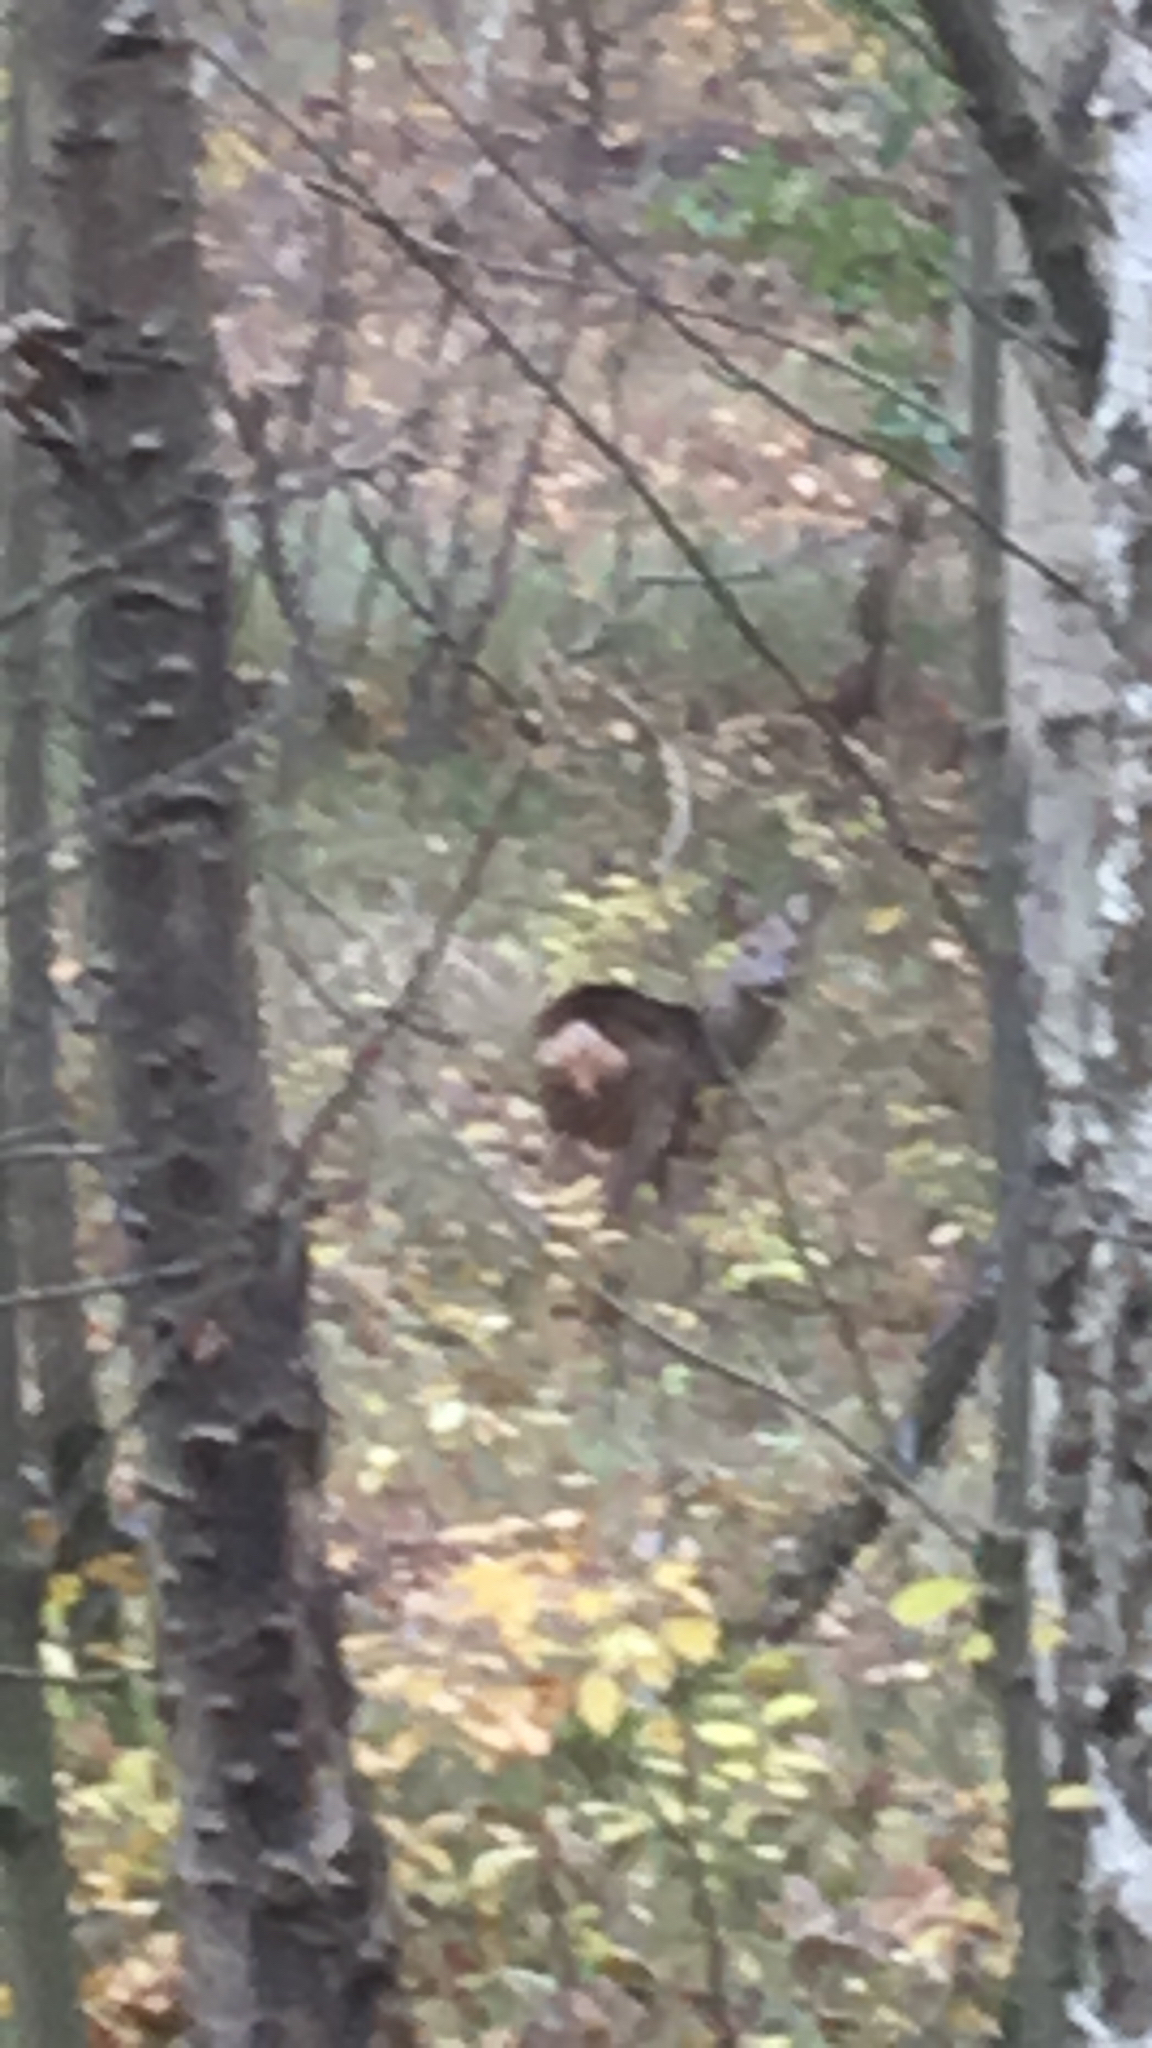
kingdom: Animalia
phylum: Chordata
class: Mammalia
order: Artiodactyla
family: Cervidae
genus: Capreolus
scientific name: Capreolus capreolus
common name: Western roe deer
